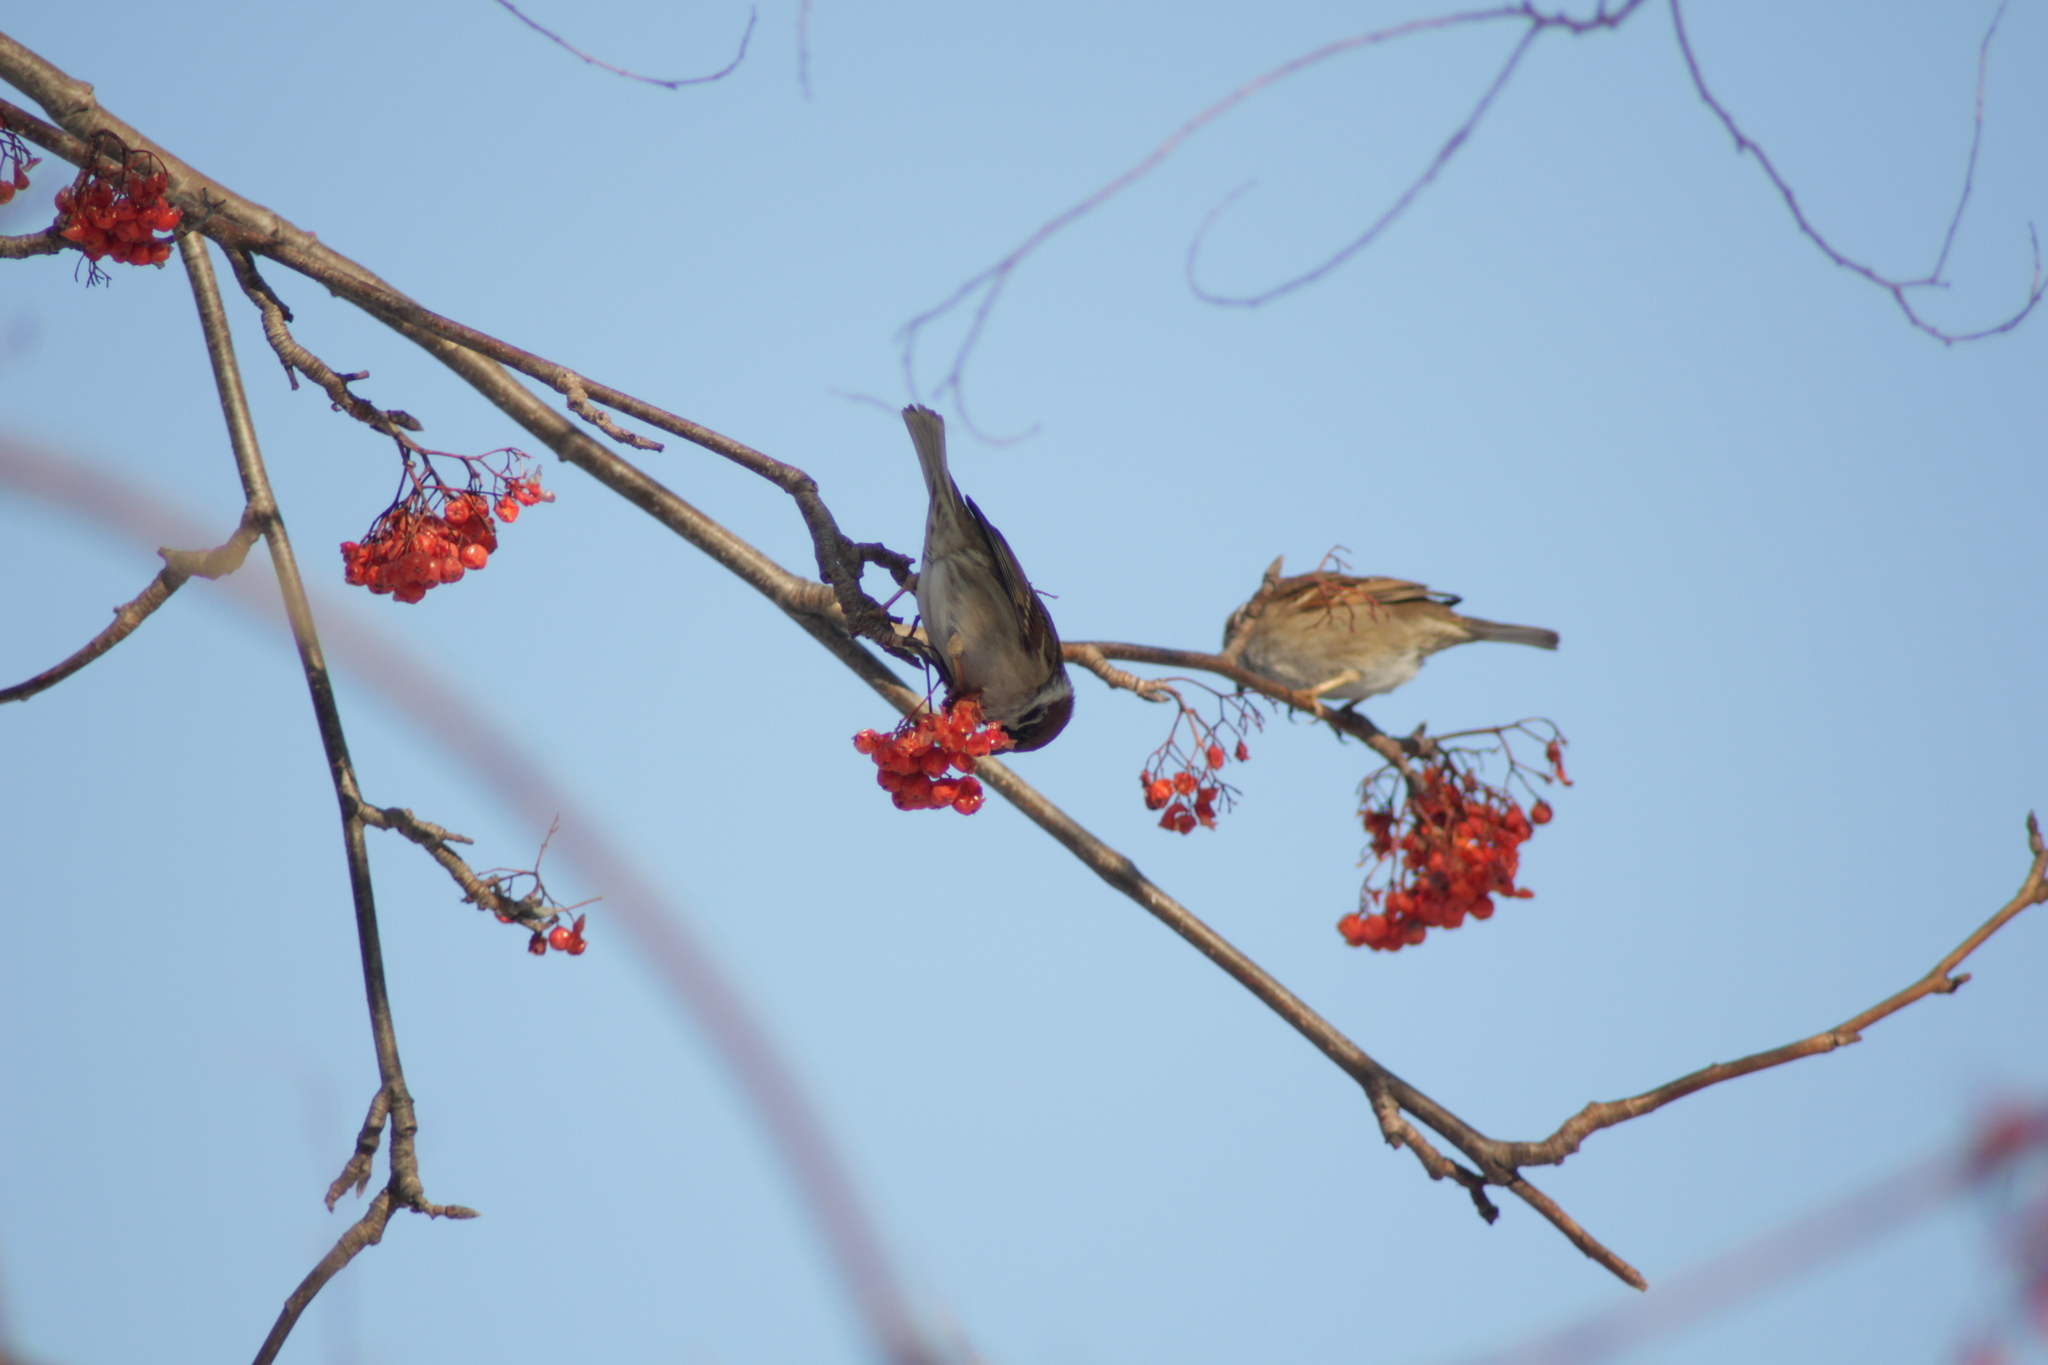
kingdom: Animalia
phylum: Chordata
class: Aves
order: Passeriformes
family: Passeridae
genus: Passer
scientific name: Passer montanus
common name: Eurasian tree sparrow
